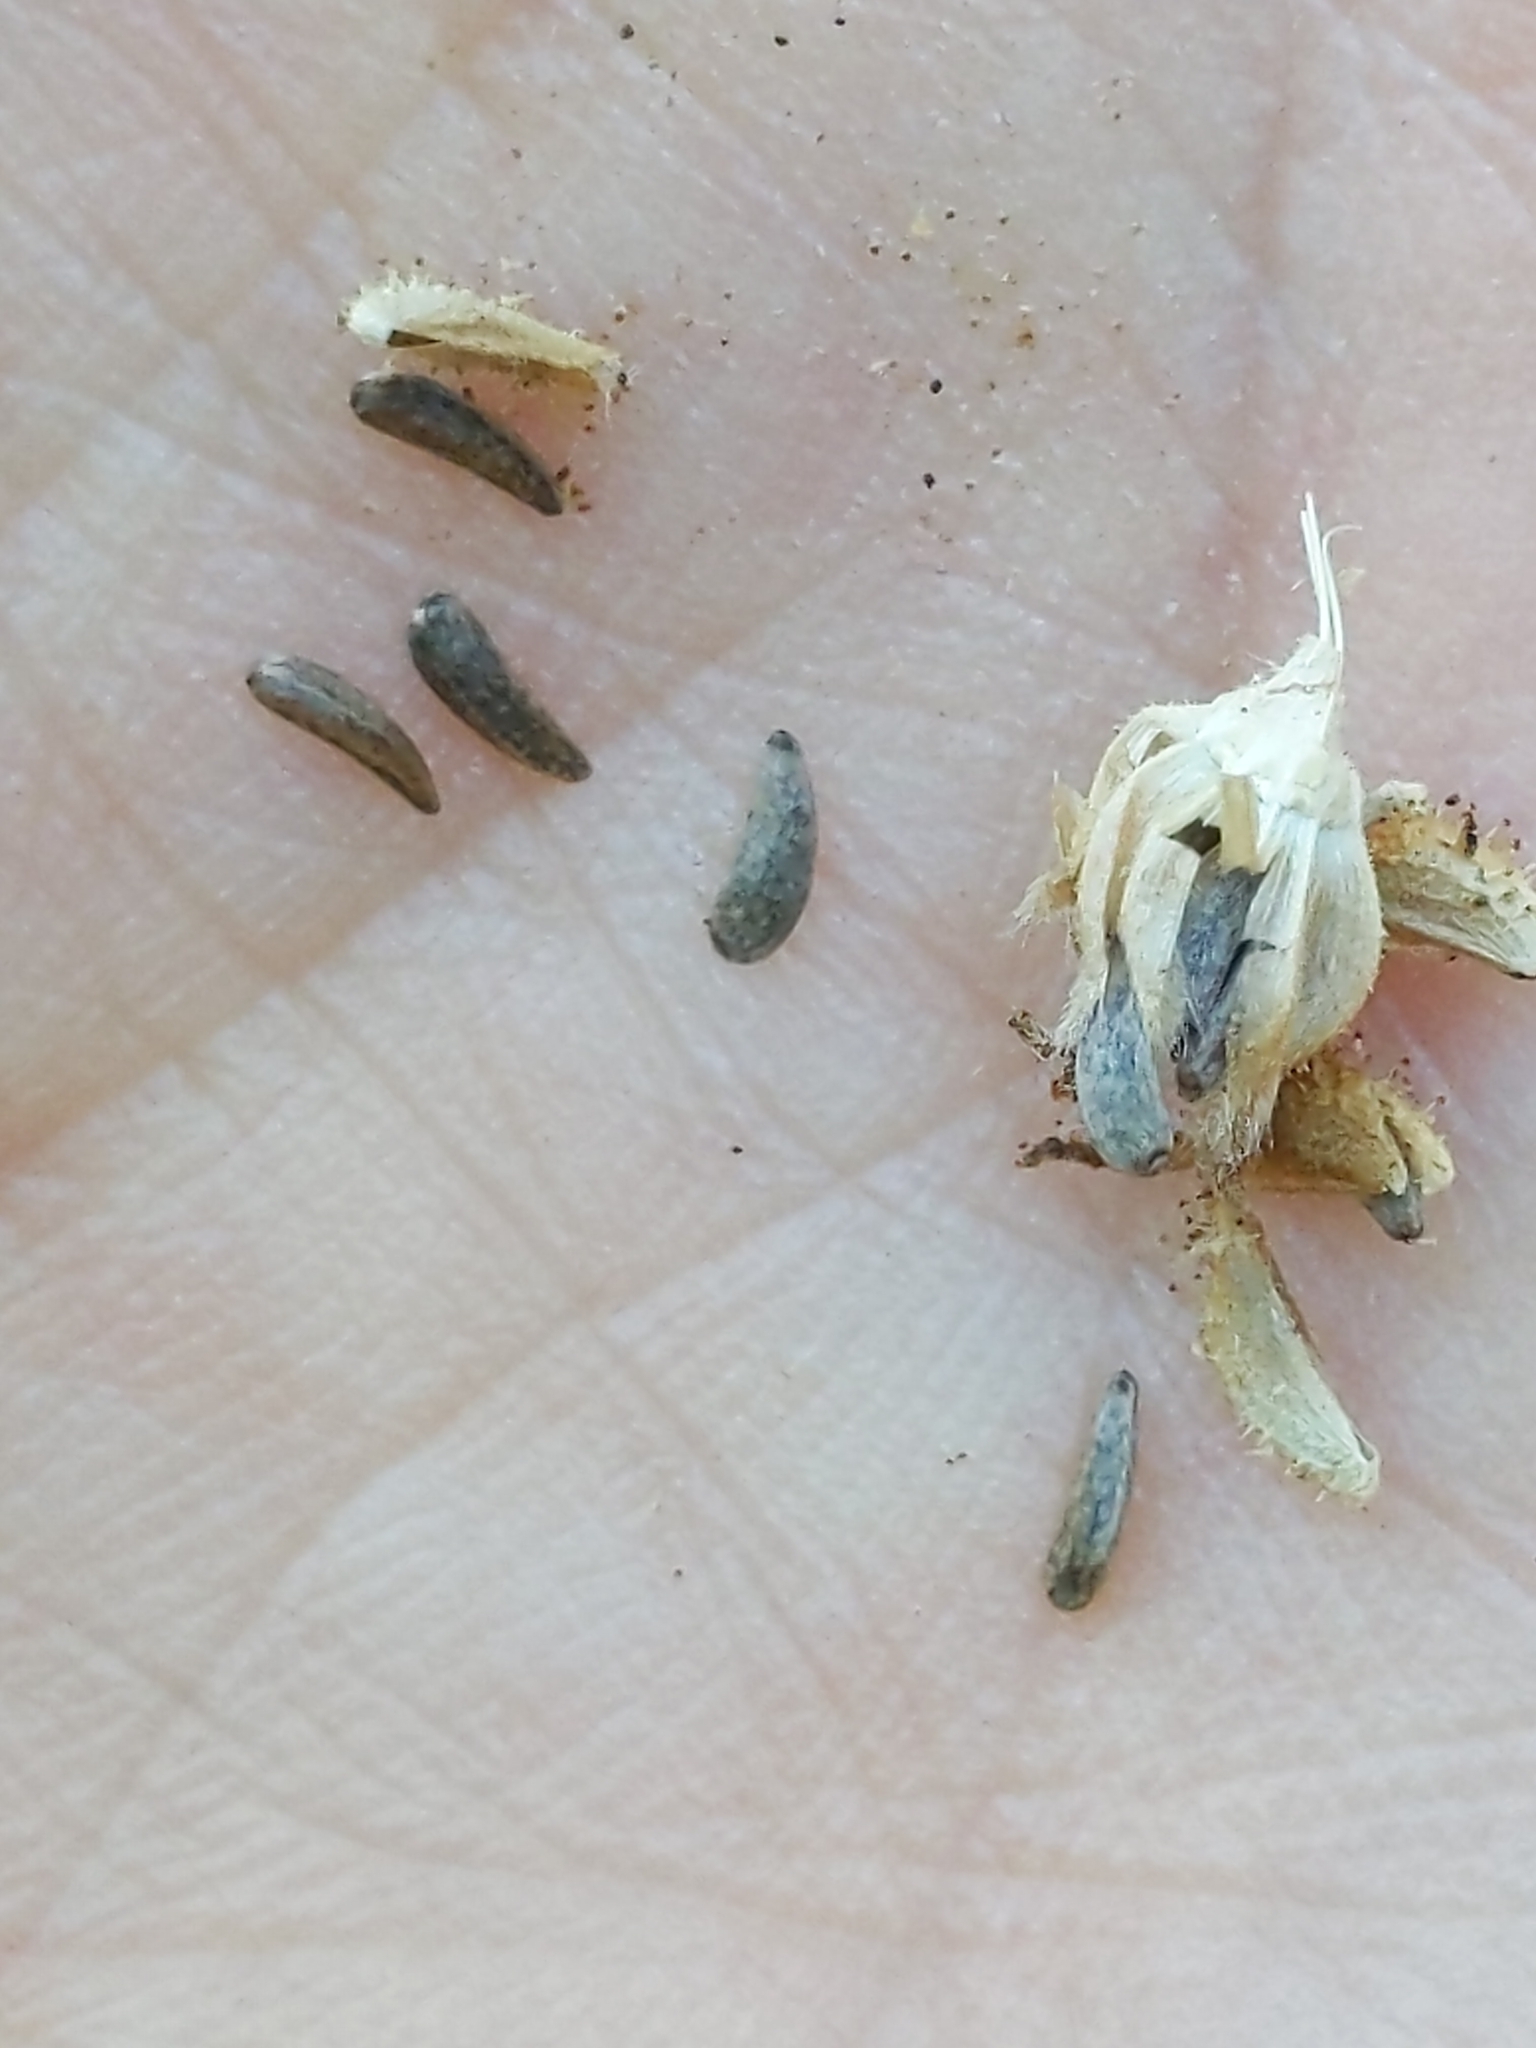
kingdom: Plantae
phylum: Tracheophyta
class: Magnoliopsida
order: Asterales
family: Asteraceae
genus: Madia
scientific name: Madia gracilis
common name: Grassy tarweed
